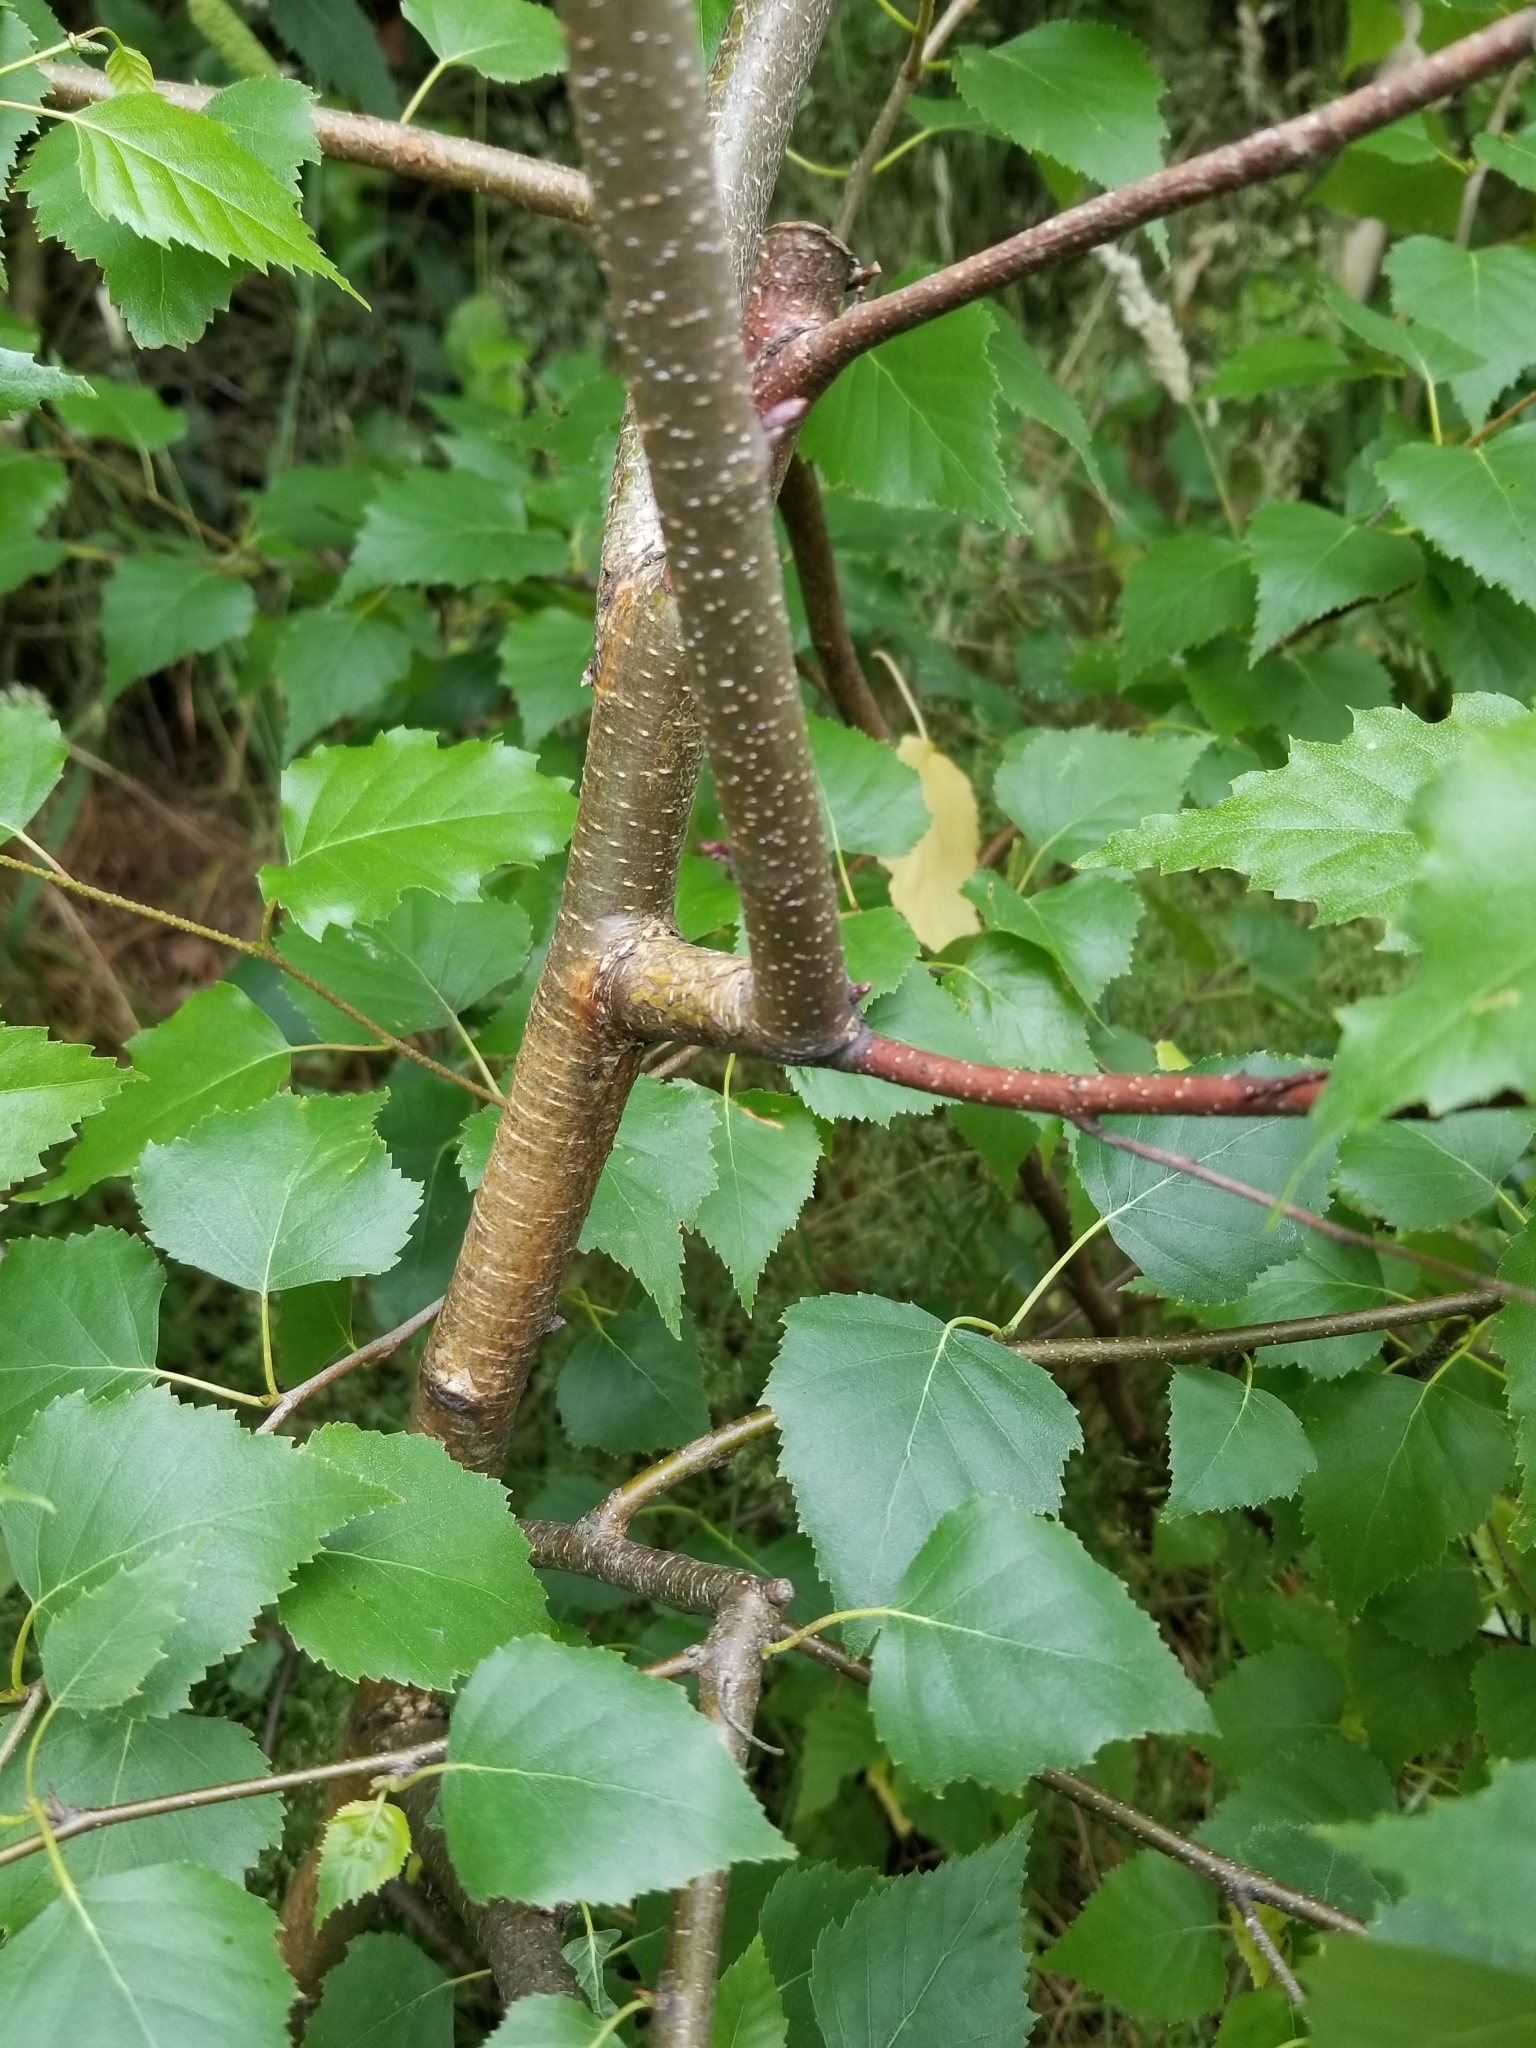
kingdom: Plantae
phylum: Tracheophyta
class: Magnoliopsida
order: Fagales
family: Betulaceae
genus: Betula
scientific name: Betula pendula
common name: Silver birch
